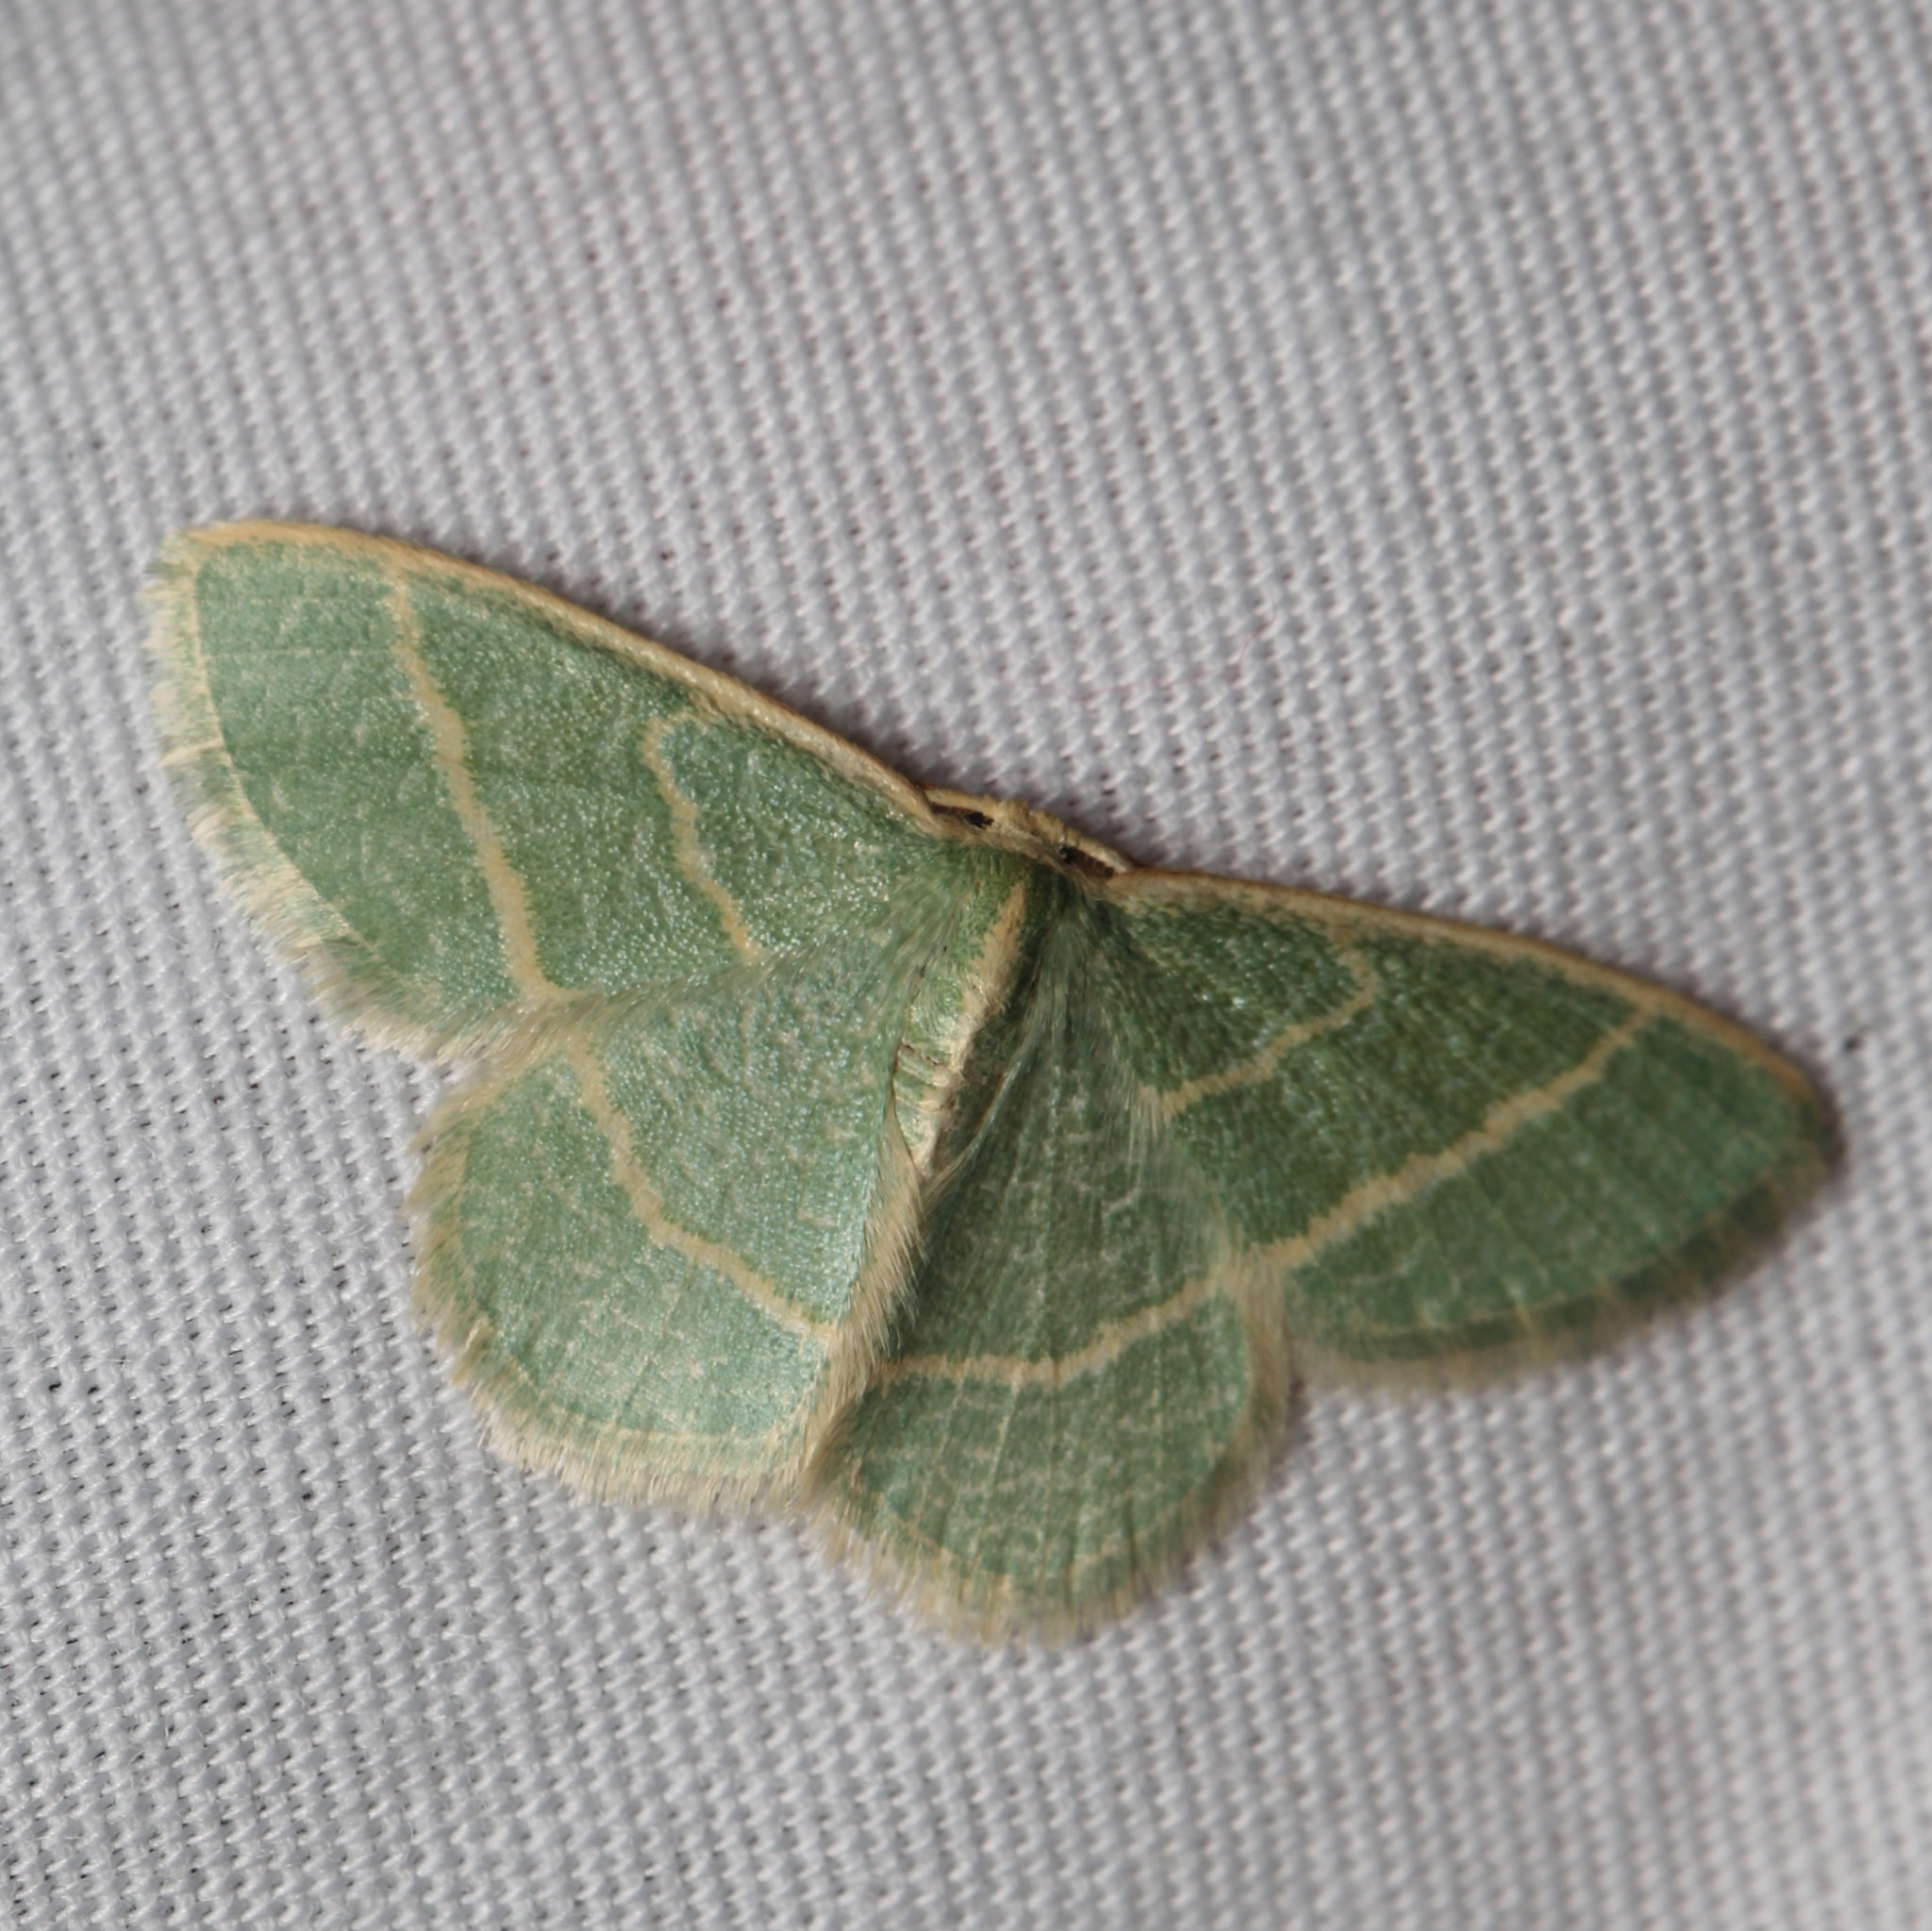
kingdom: Animalia
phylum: Arthropoda
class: Insecta
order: Lepidoptera
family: Geometridae
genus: Chlorochlamys
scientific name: Chlorochlamys chloroleucaria
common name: Blackberry looper
